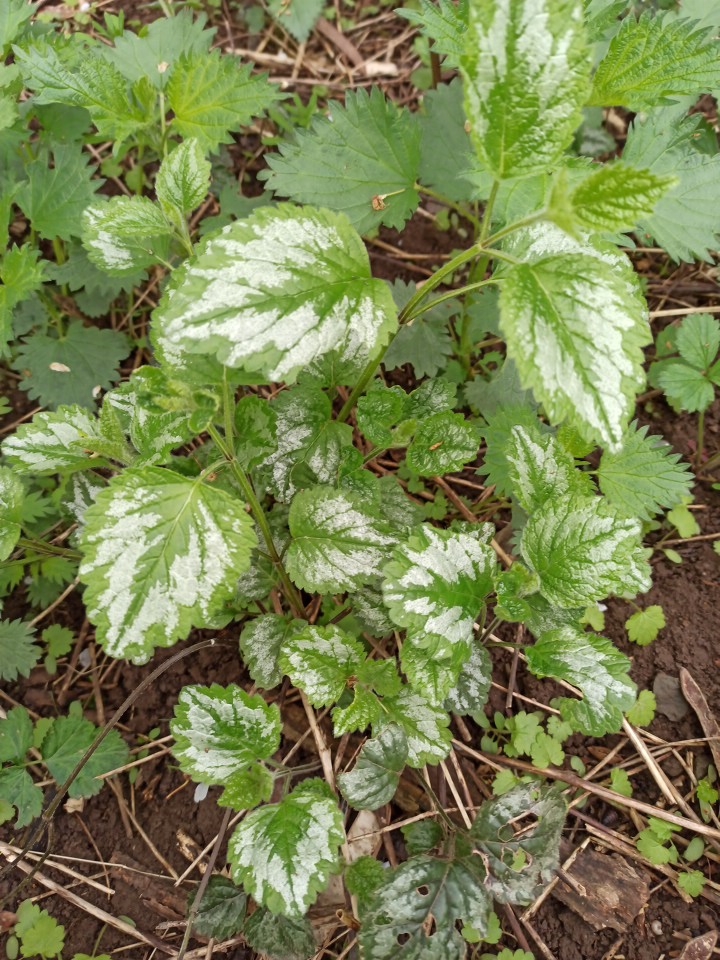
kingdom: Plantae
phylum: Tracheophyta
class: Magnoliopsida
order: Lamiales
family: Lamiaceae
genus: Lamium
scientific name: Lamium galeobdolon
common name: Yellow archangel
